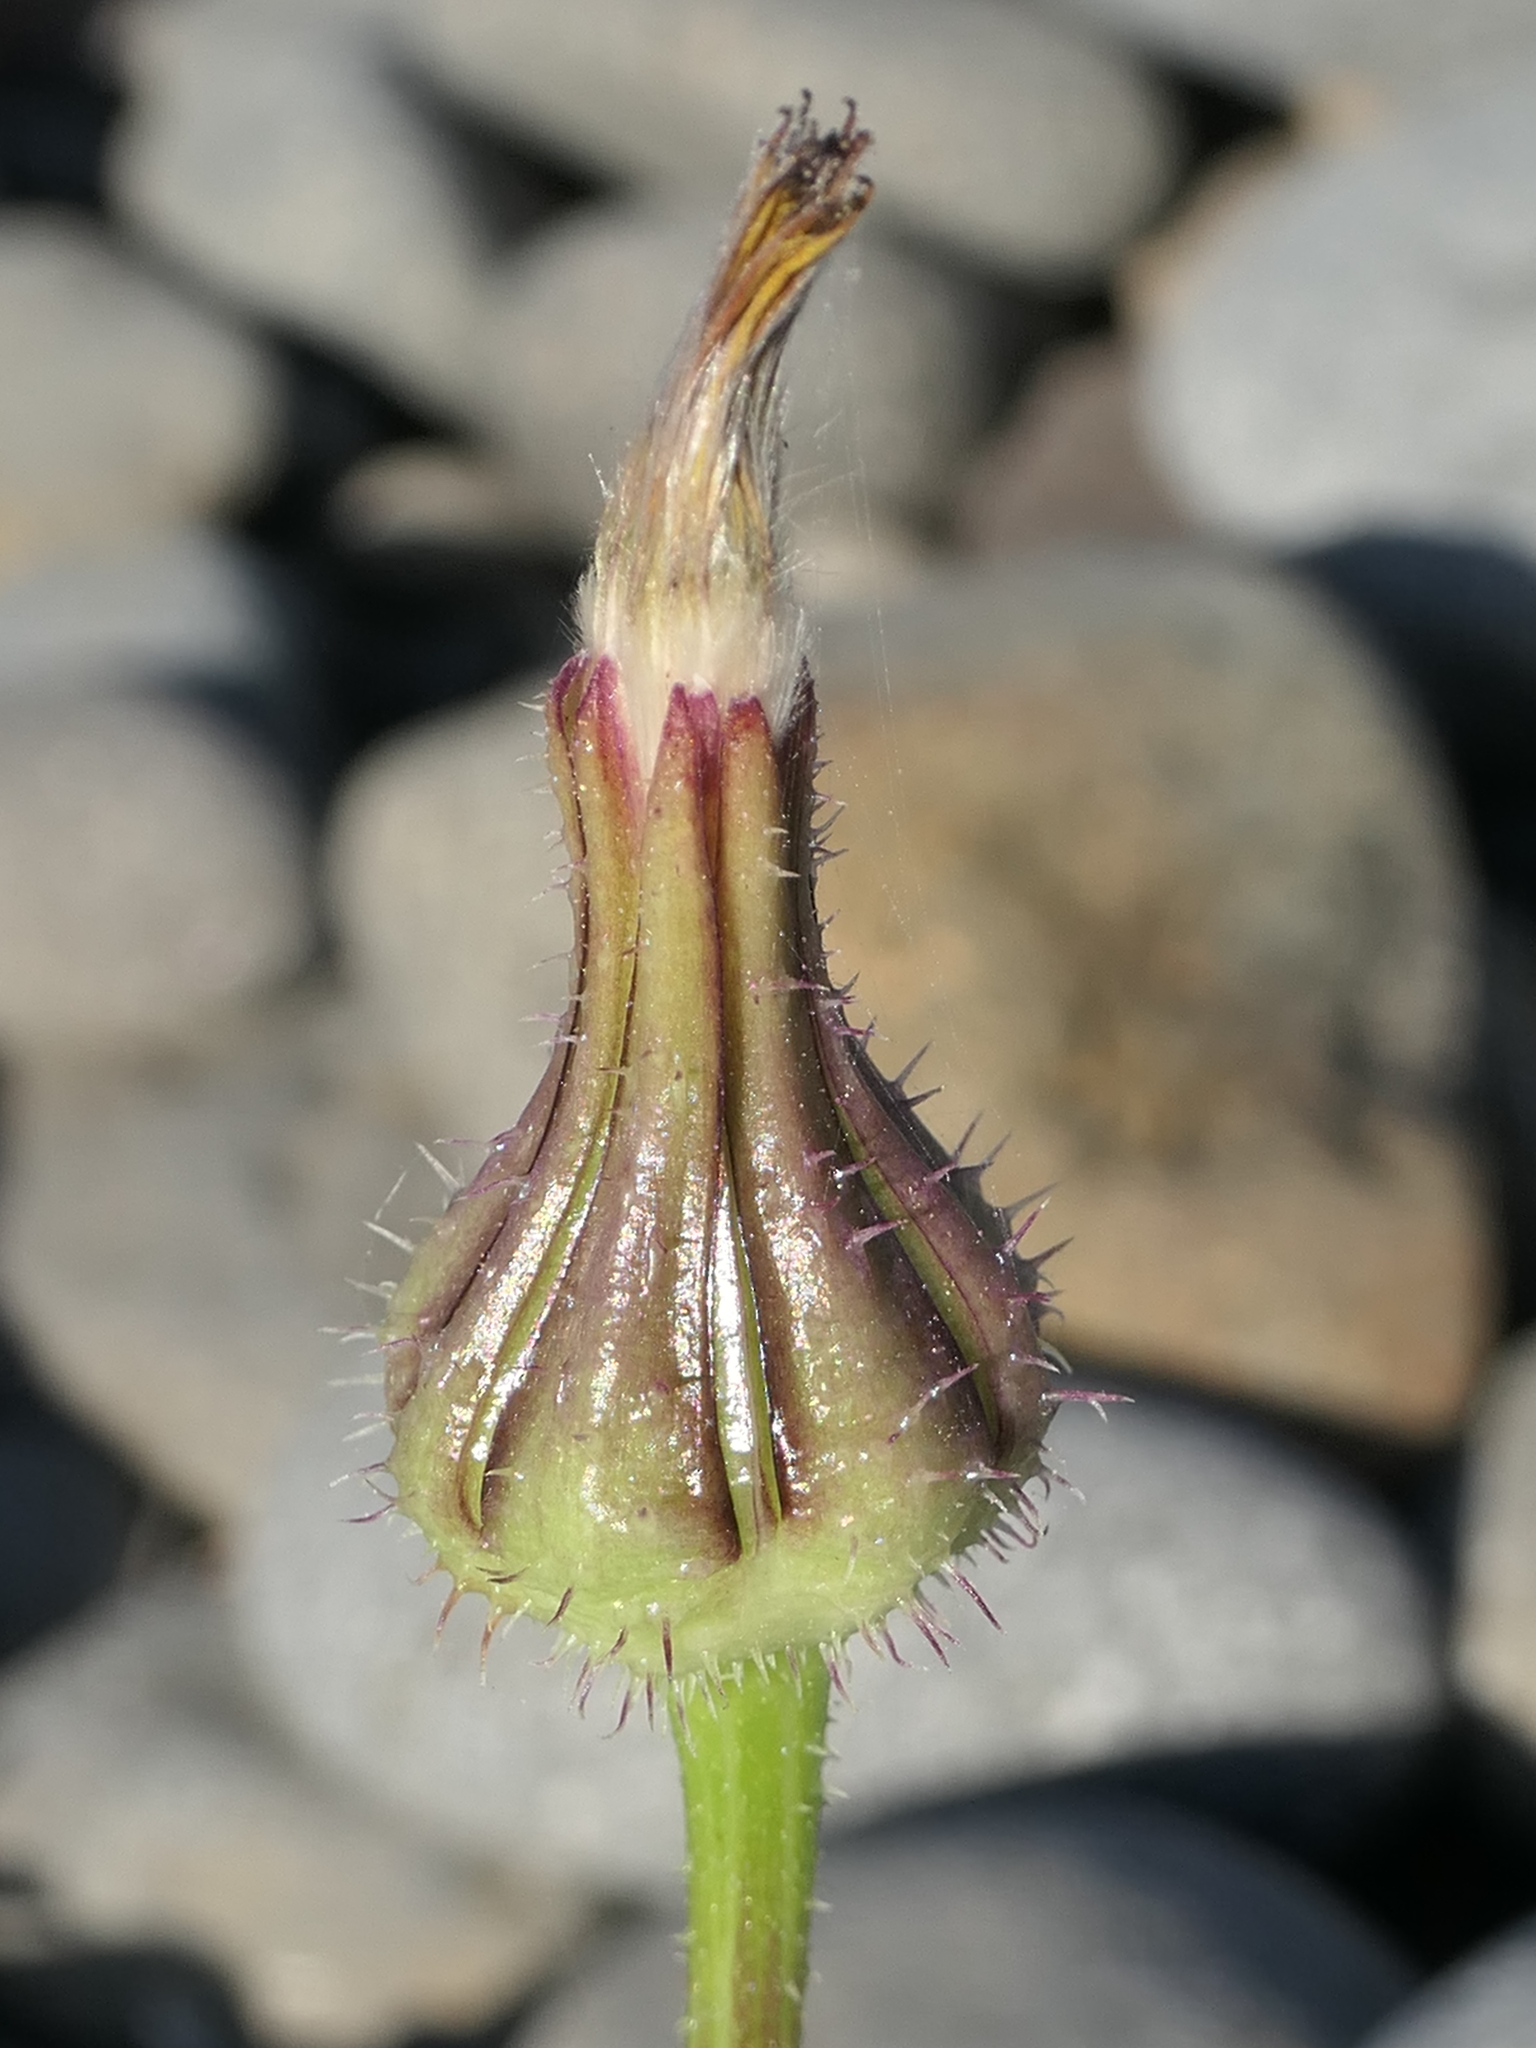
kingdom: Plantae
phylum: Tracheophyta
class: Magnoliopsida
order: Asterales
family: Asteraceae
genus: Urospermum
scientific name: Urospermum picroides
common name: False hawkbit
